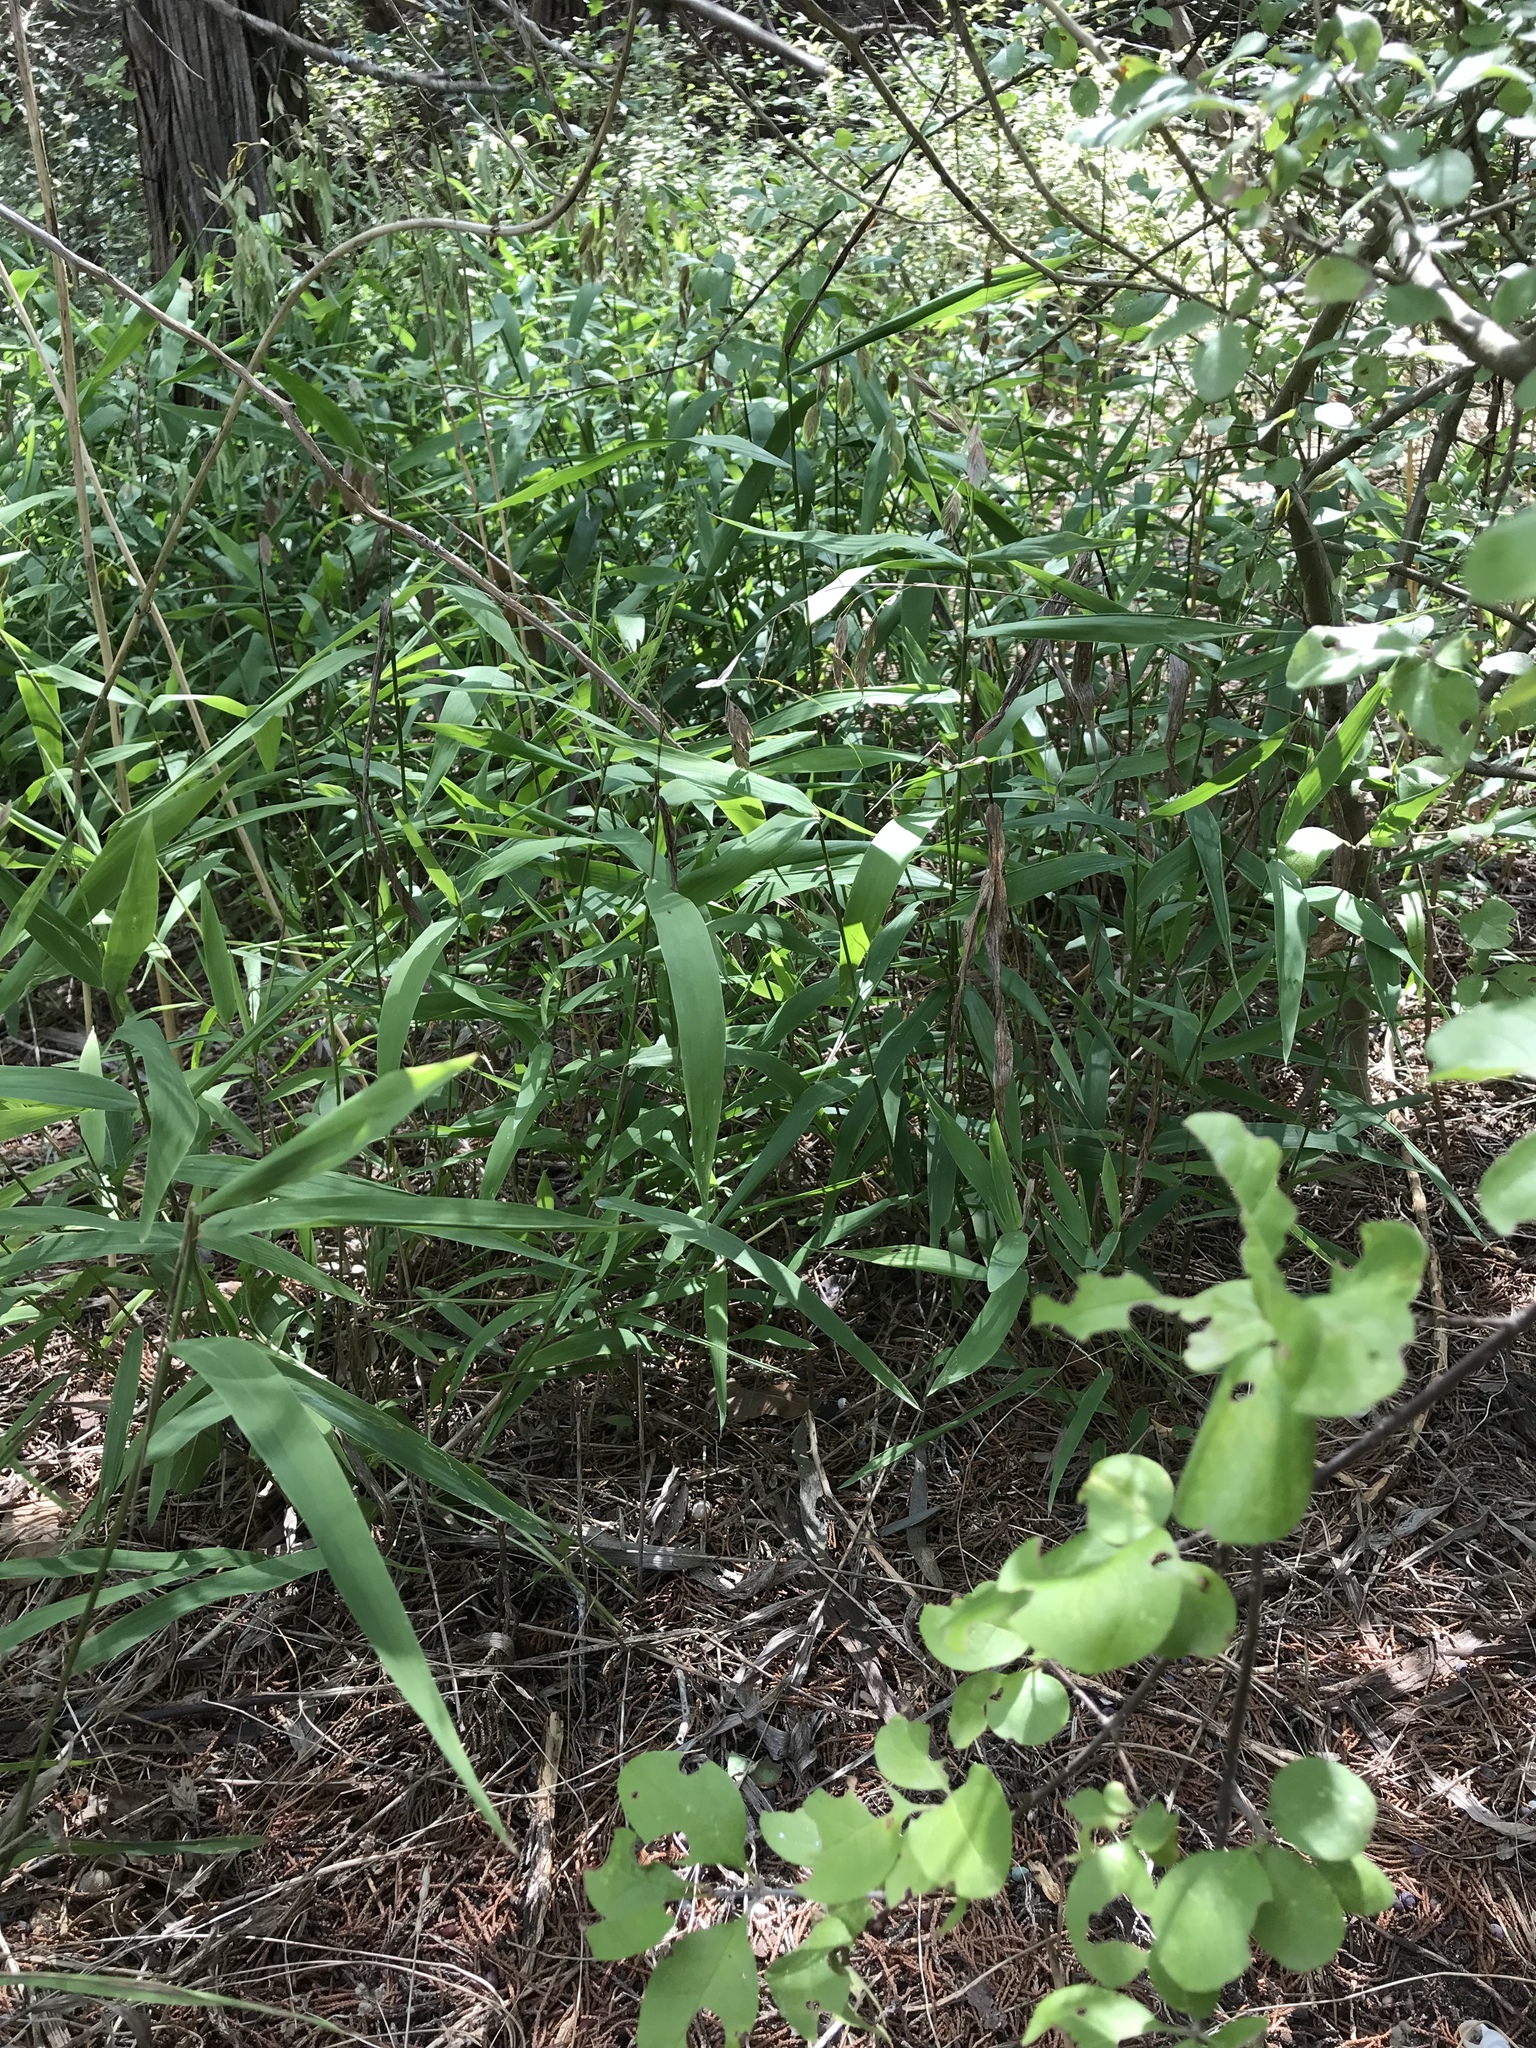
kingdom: Plantae
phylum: Tracheophyta
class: Liliopsida
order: Poales
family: Poaceae
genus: Chasmanthium
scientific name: Chasmanthium latifolium
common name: Broad-leaved chasmanthium
